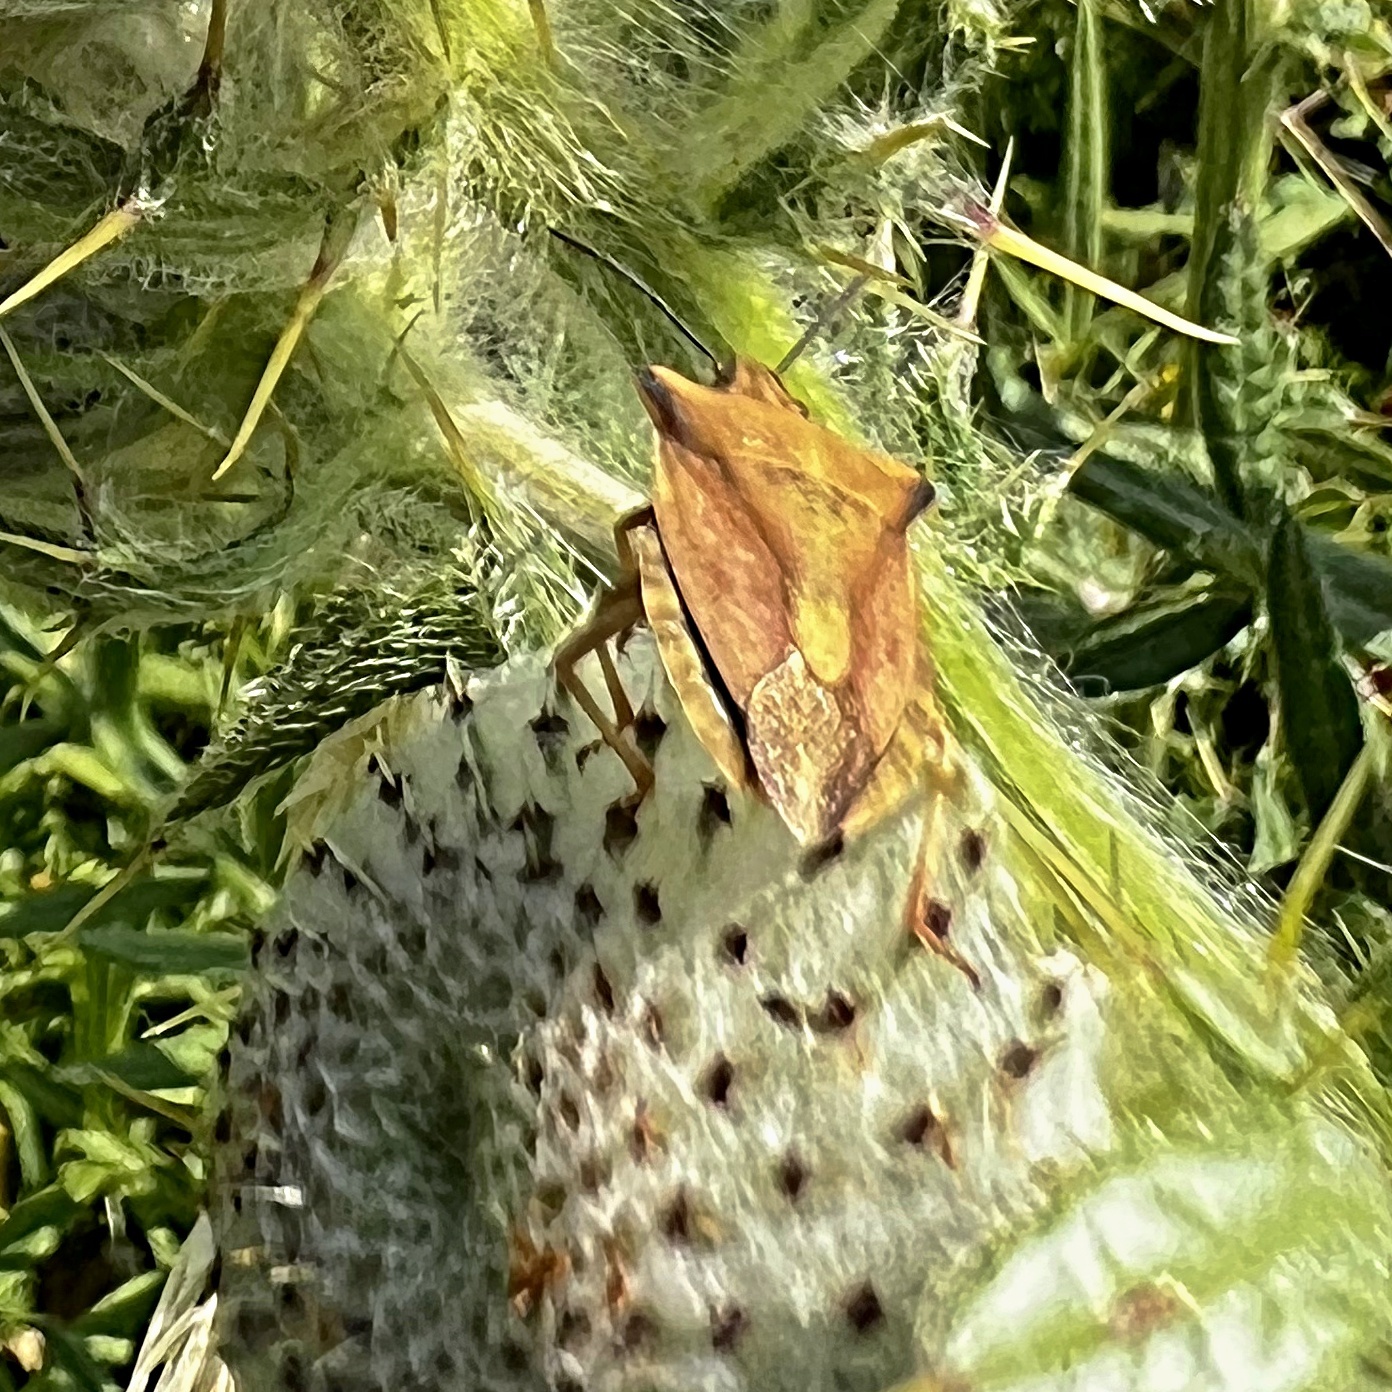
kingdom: Animalia
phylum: Arthropoda
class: Insecta
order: Hemiptera
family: Pentatomidae
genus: Carpocoris
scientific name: Carpocoris fuscispinus
